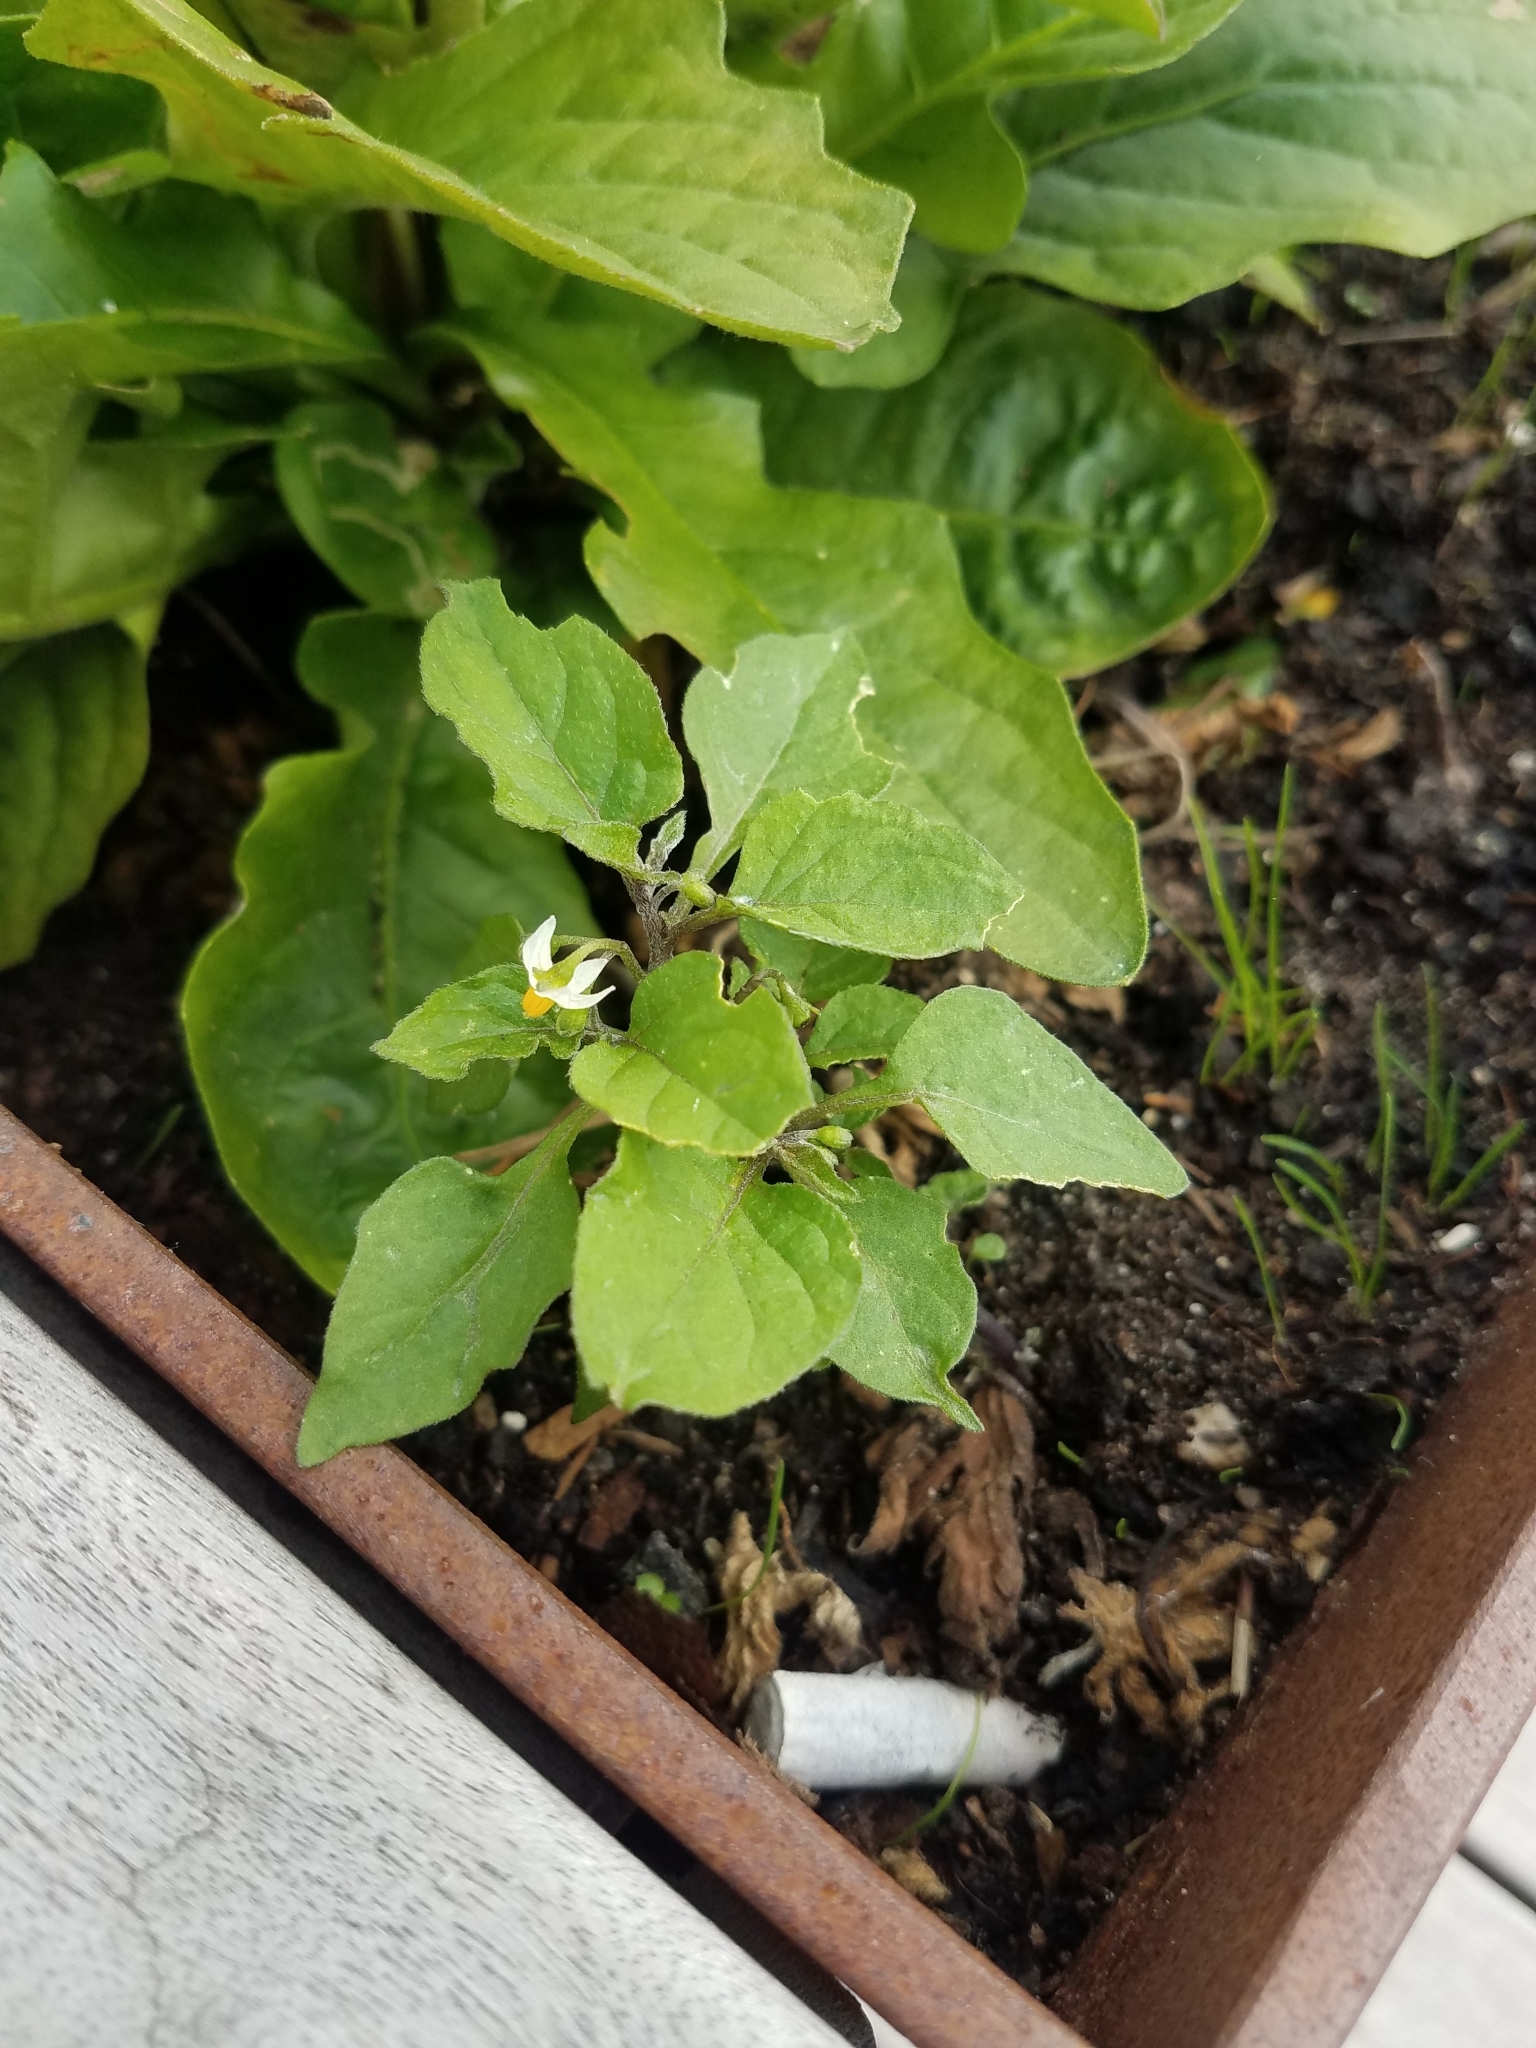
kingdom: Plantae
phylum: Tracheophyta
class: Magnoliopsida
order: Solanales
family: Solanaceae
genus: Solanum
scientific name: Solanum nigrum
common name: Black nightshade
